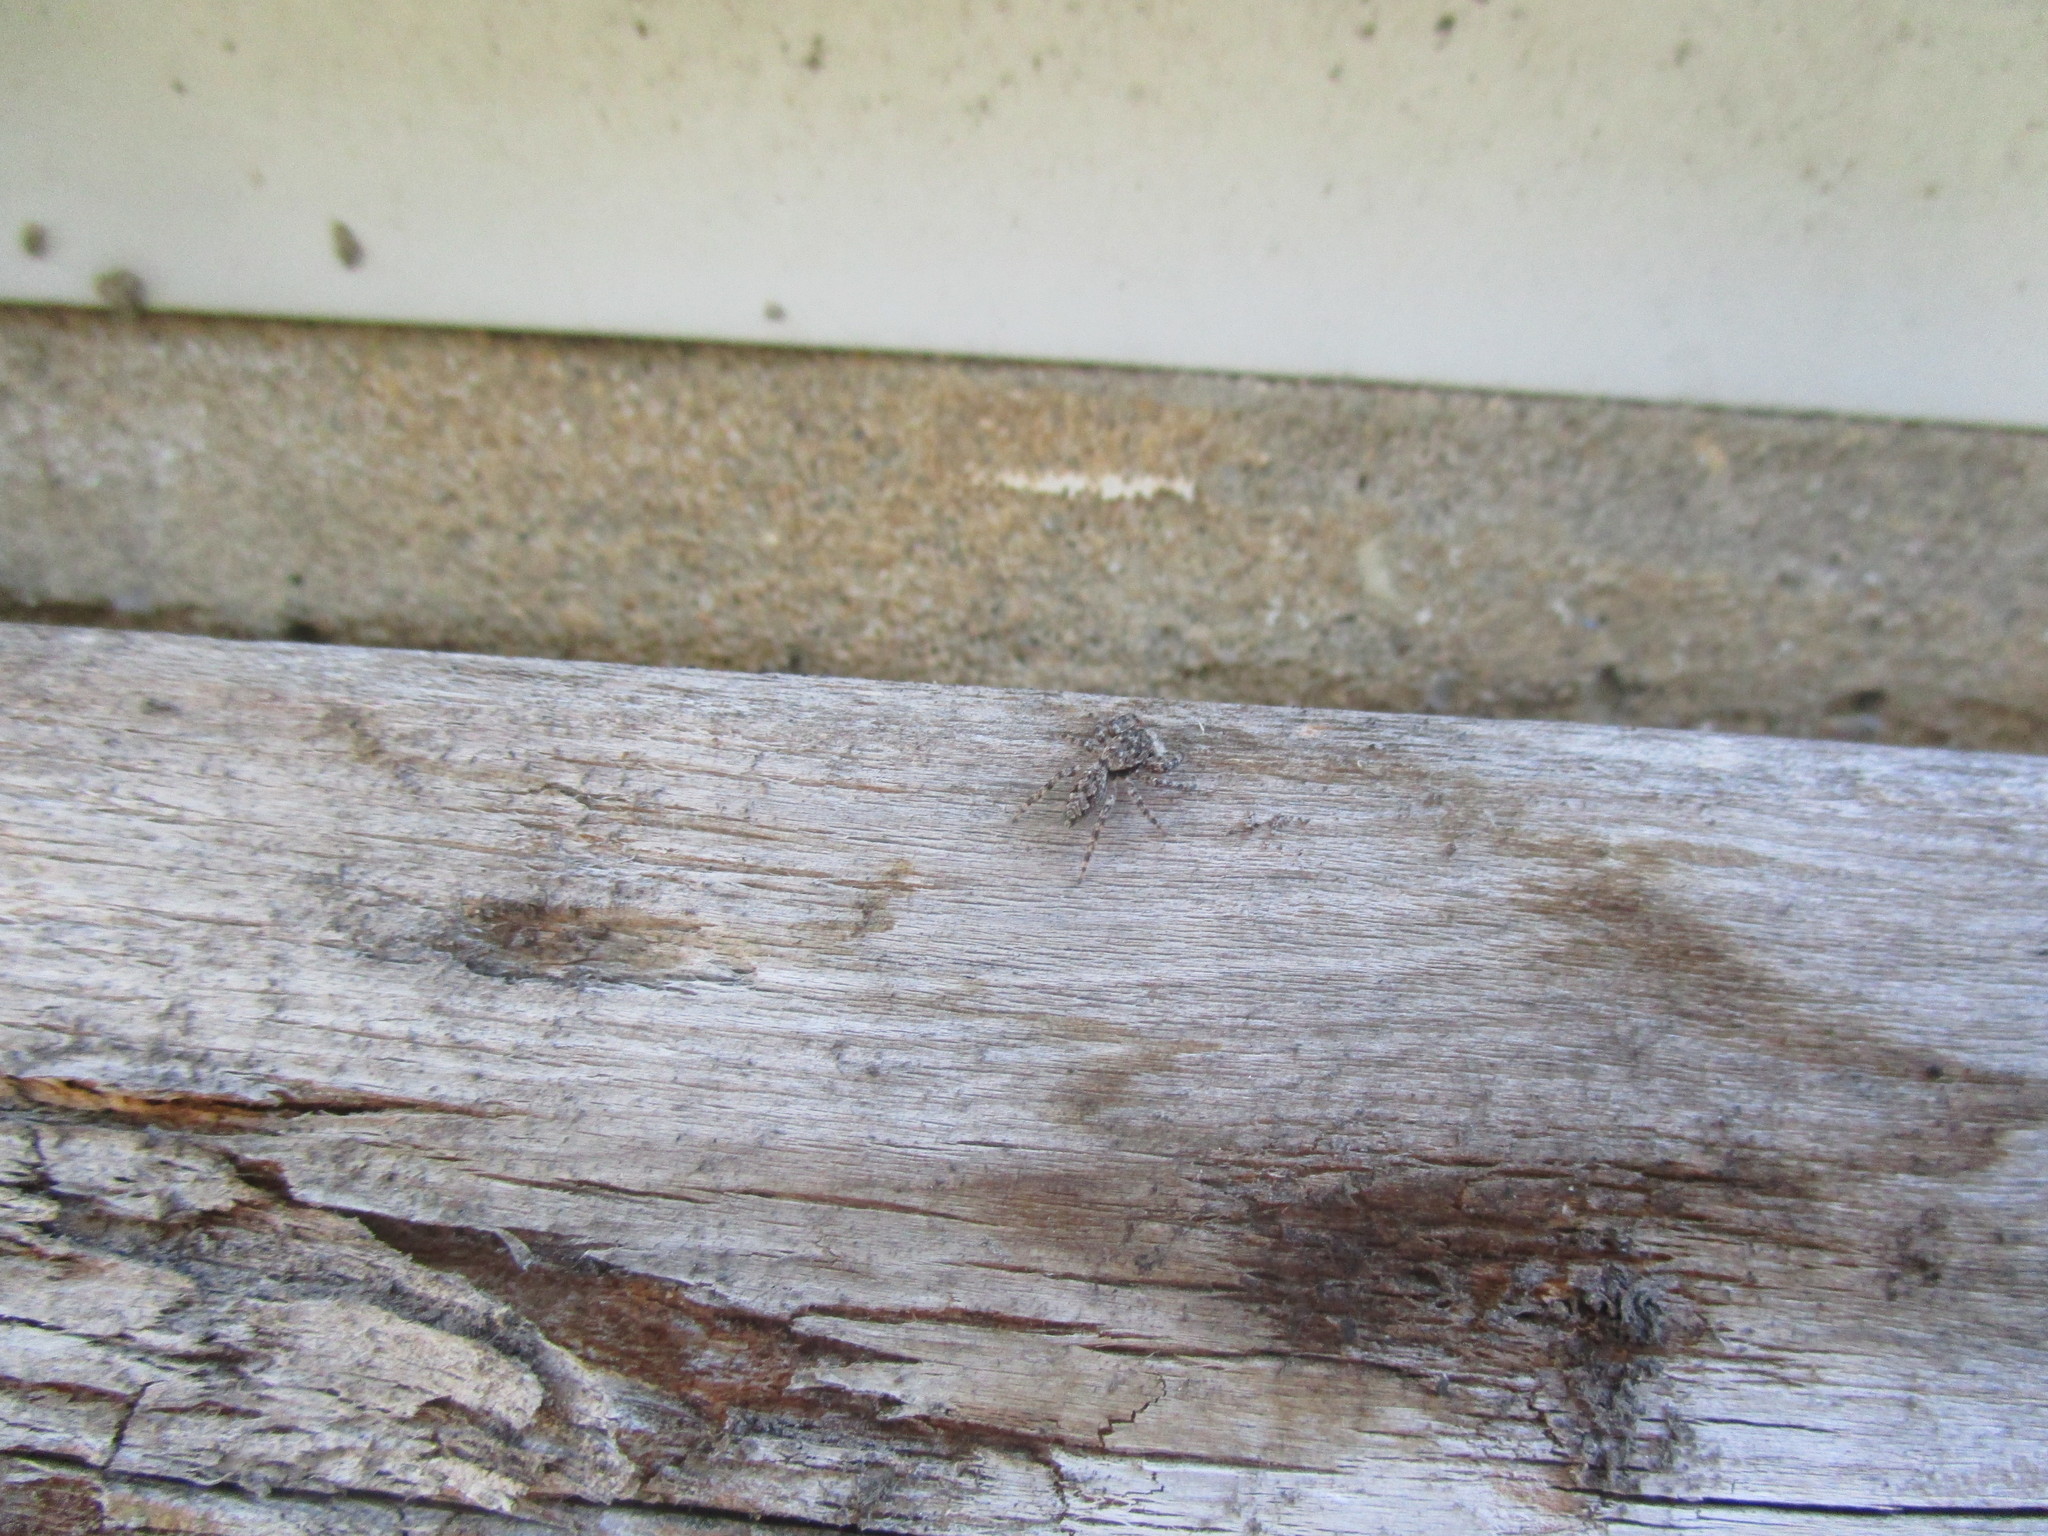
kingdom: Animalia
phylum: Arthropoda
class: Arachnida
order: Araneae
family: Salticidae
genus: Platycryptus
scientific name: Platycryptus undatus
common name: Tan jumping spider
